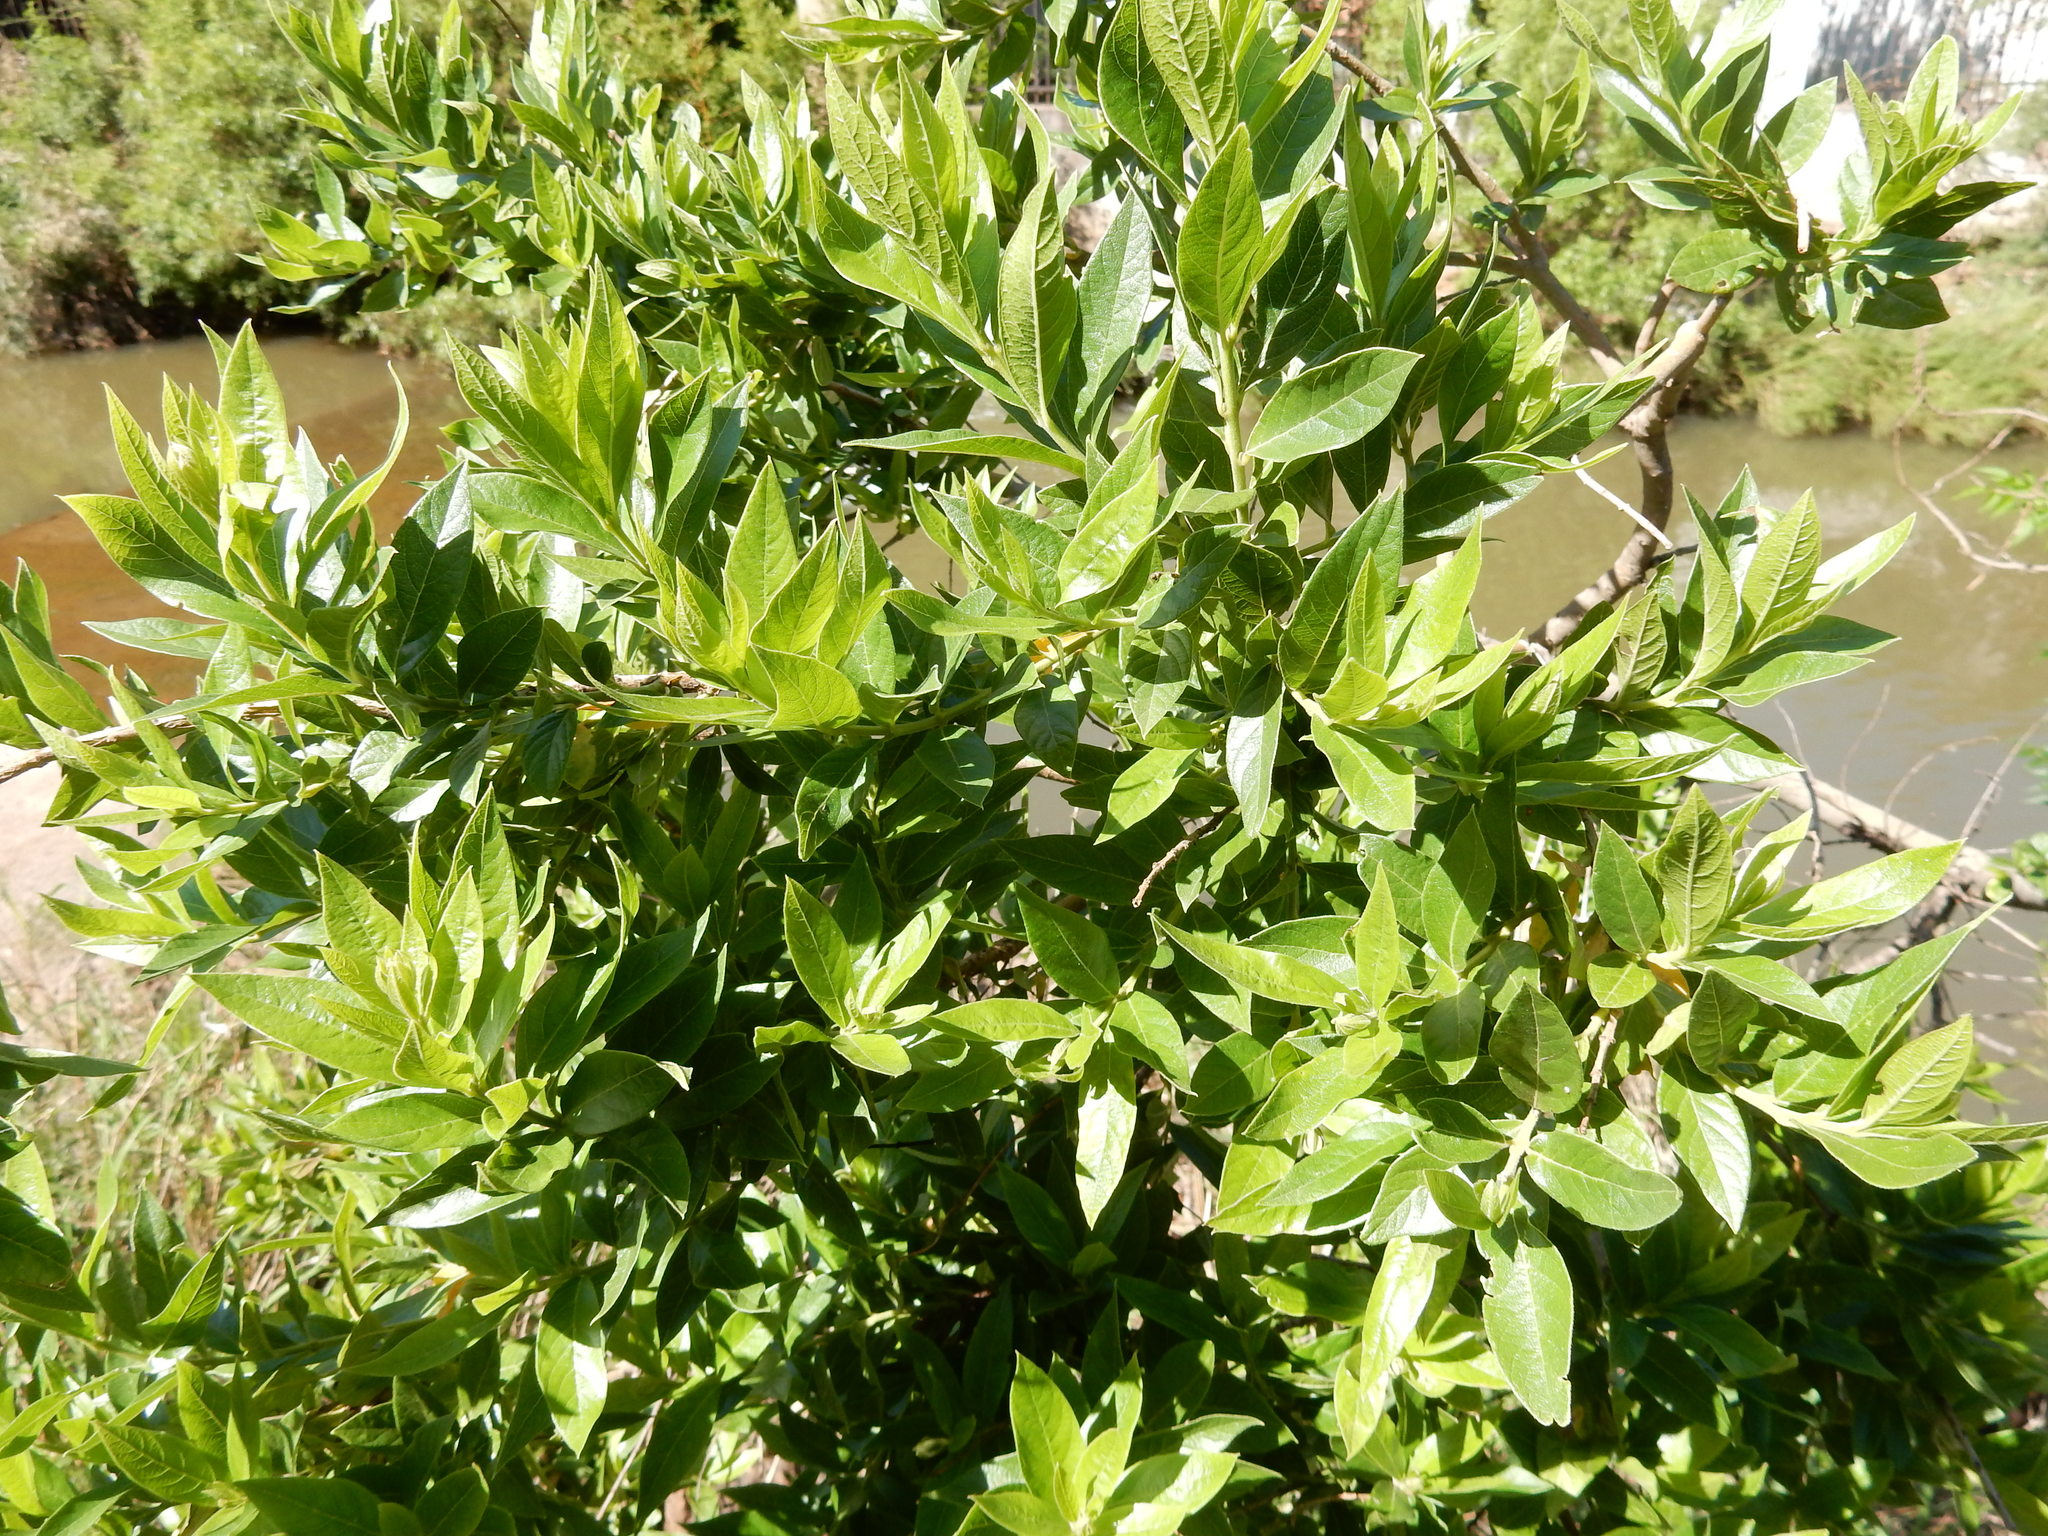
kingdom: Plantae
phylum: Tracheophyta
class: Magnoliopsida
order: Myrtales
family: Combretaceae
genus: Combretum
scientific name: Combretum erythrophyllum
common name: Bush-willow
